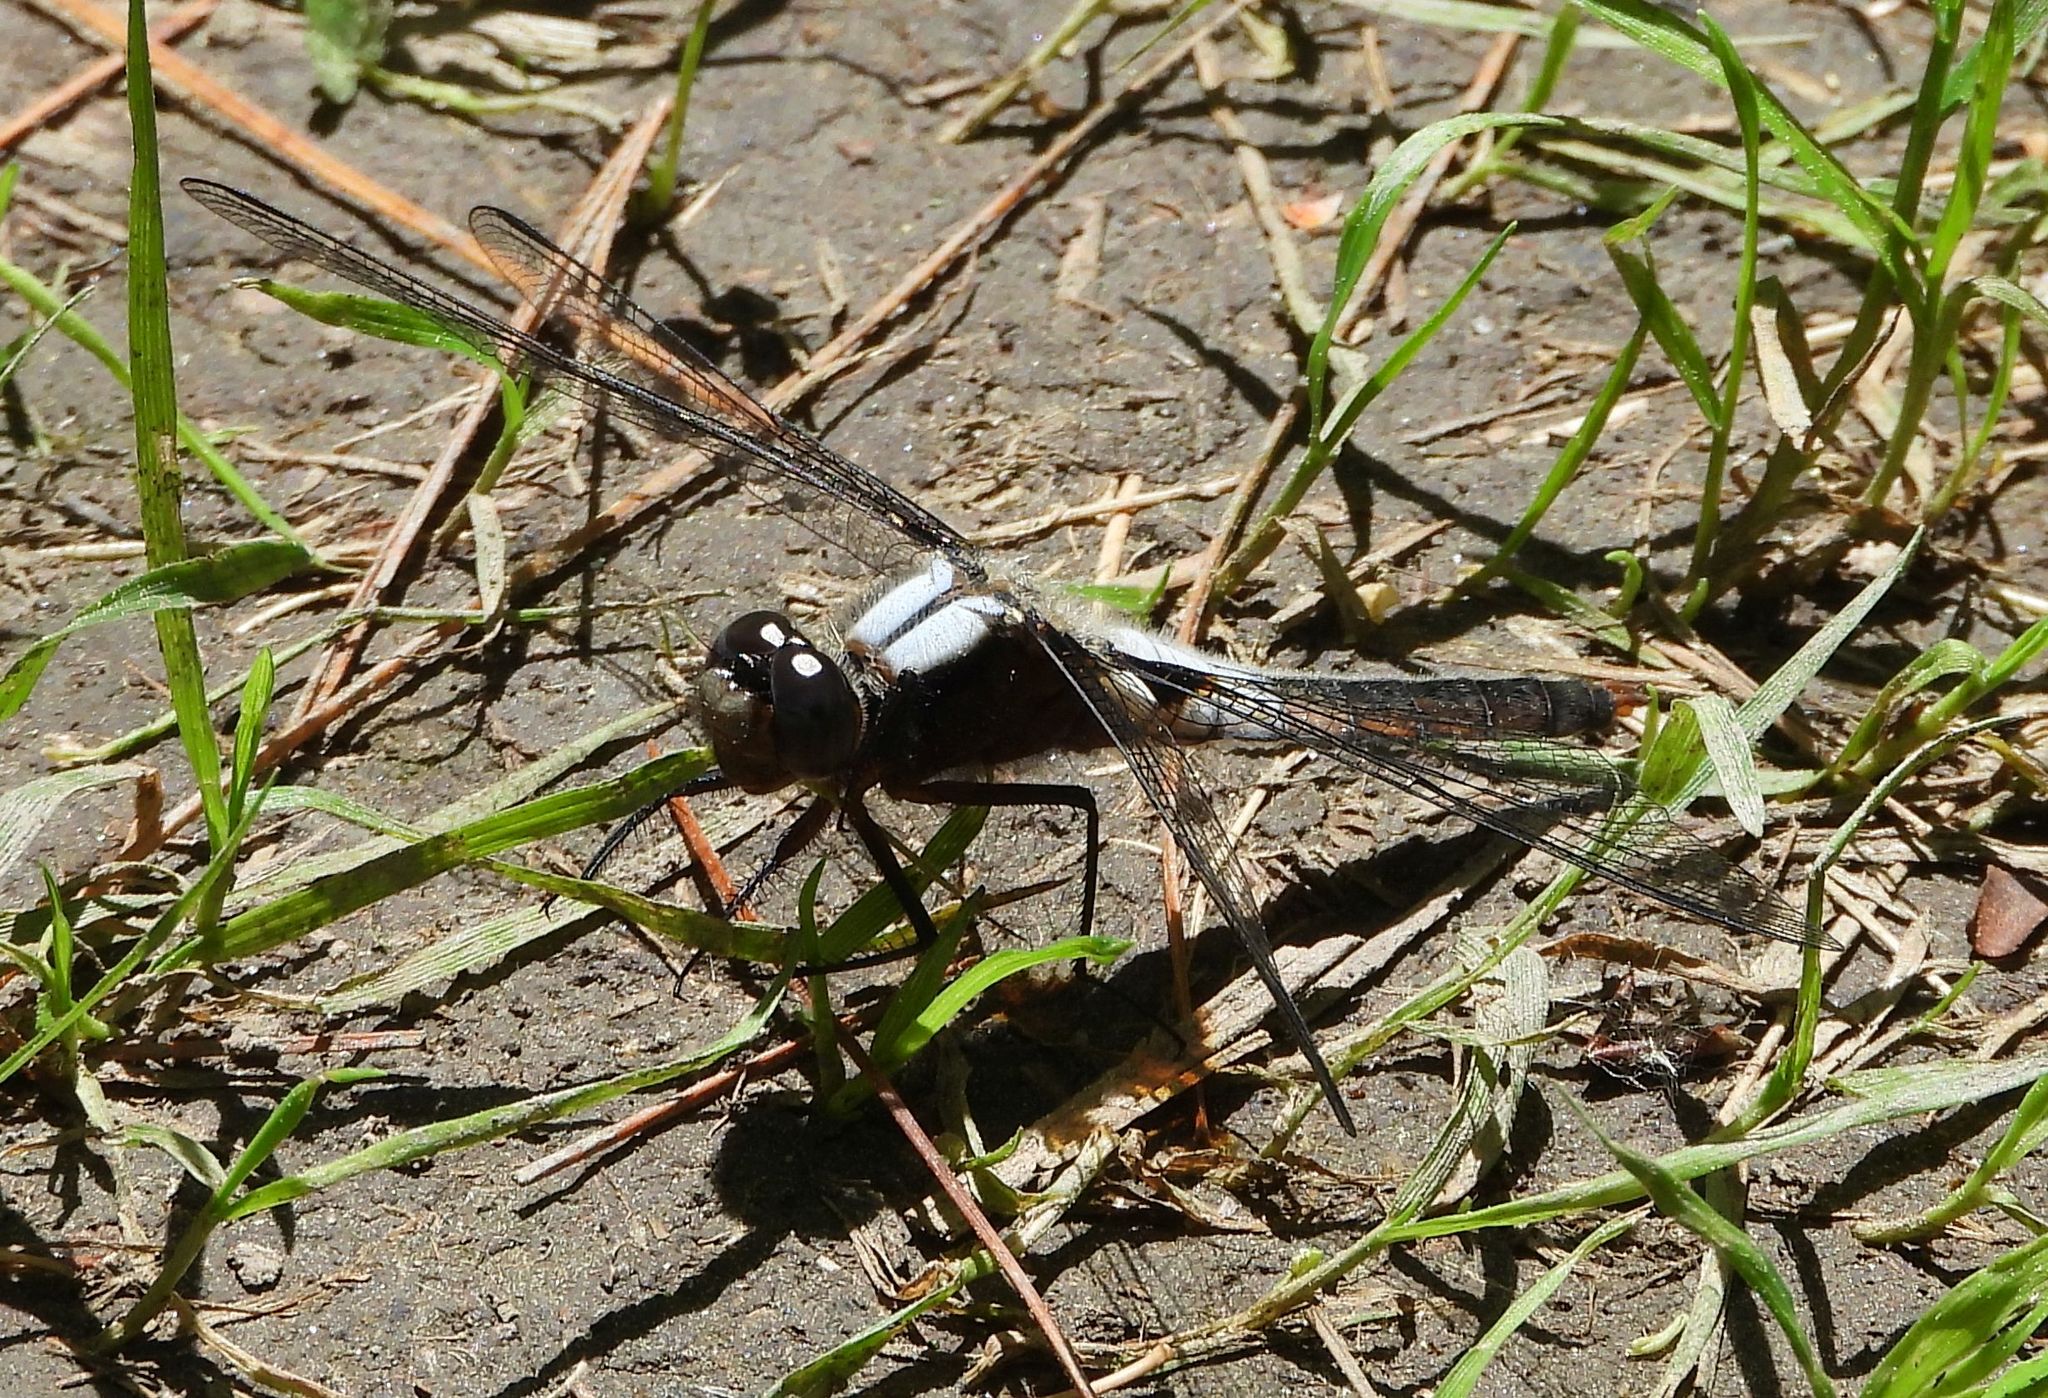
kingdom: Animalia
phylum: Arthropoda
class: Insecta
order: Odonata
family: Libellulidae
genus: Ladona
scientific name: Ladona julia
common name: Chalk-fronted corporal
